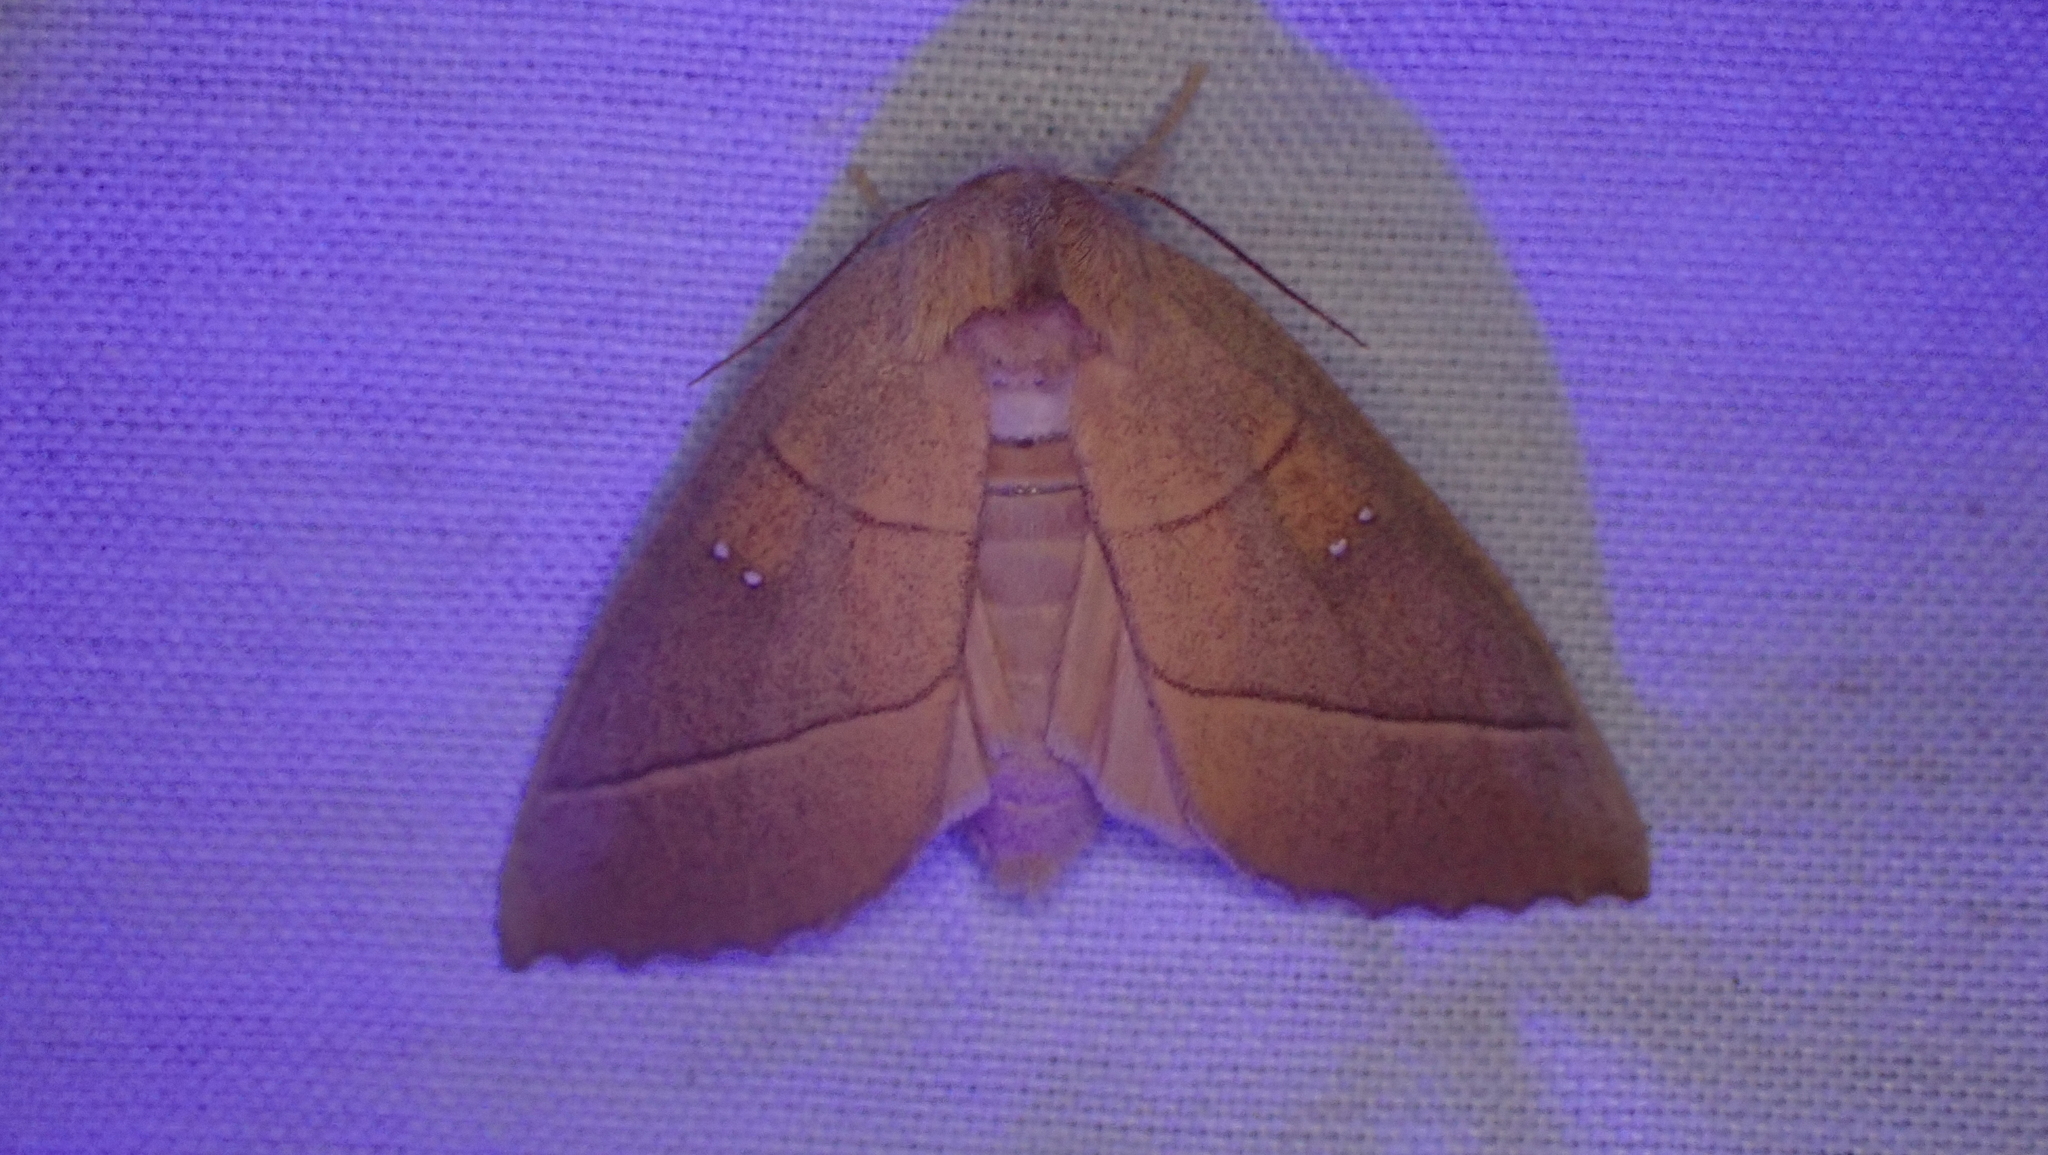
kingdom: Animalia
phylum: Arthropoda
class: Insecta
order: Lepidoptera
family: Notodontidae
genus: Nadata
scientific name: Nadata gibbosa
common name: White-dotted prominent
